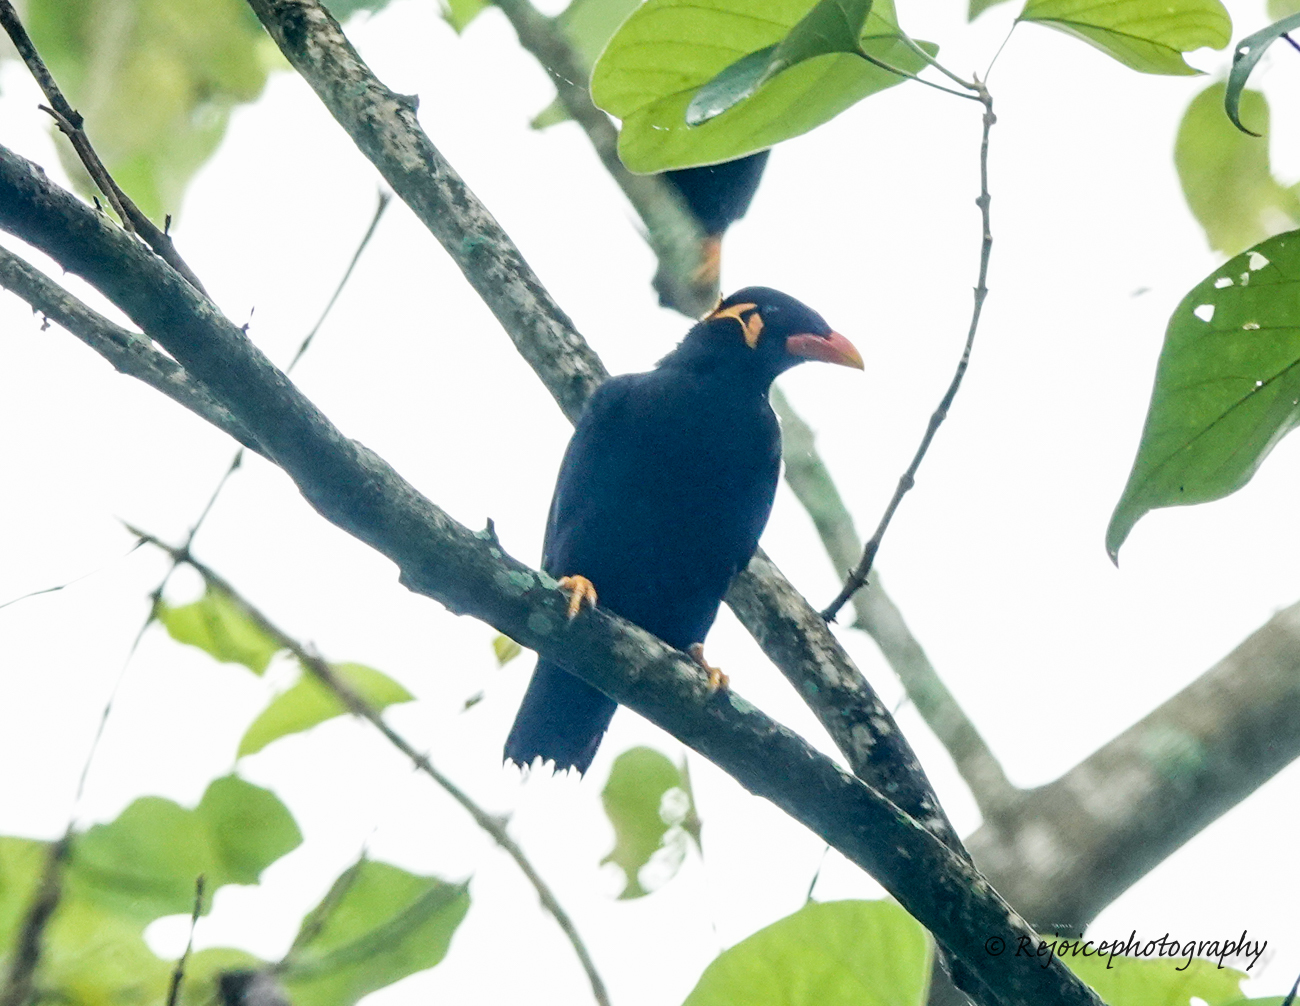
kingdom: Animalia
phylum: Chordata
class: Aves
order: Passeriformes
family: Sturnidae
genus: Gracula
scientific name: Gracula religiosa
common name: Common hill myna
